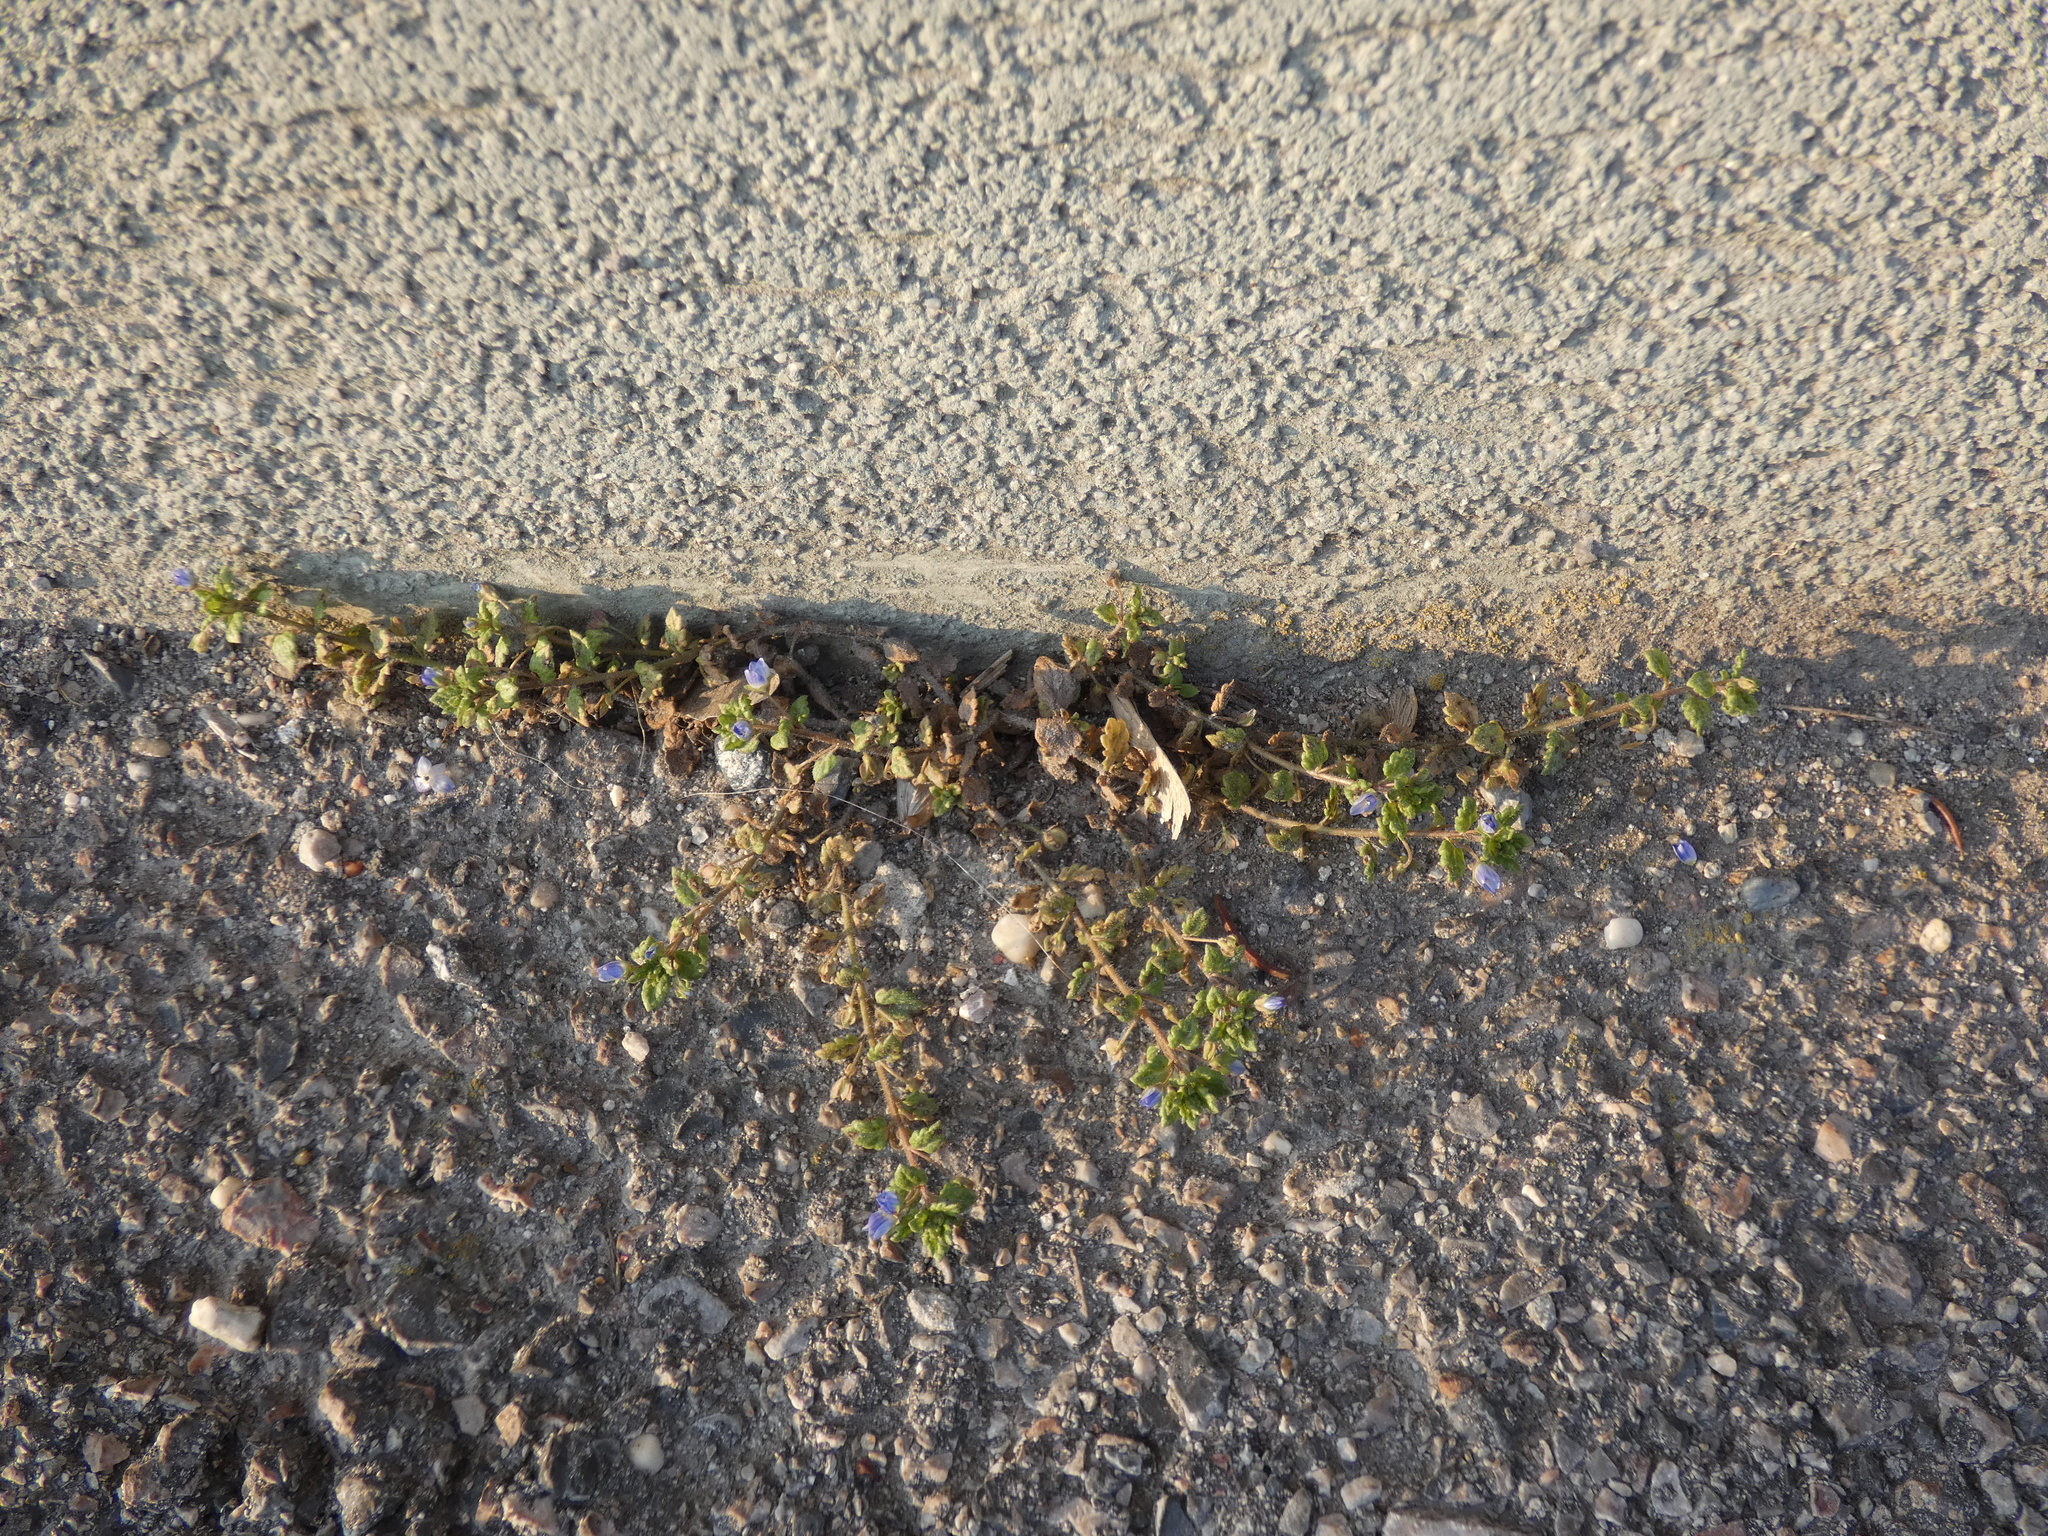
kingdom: Plantae
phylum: Tracheophyta
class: Magnoliopsida
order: Lamiales
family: Plantaginaceae
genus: Veronica
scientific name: Veronica polita
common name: Grey field-speedwell
